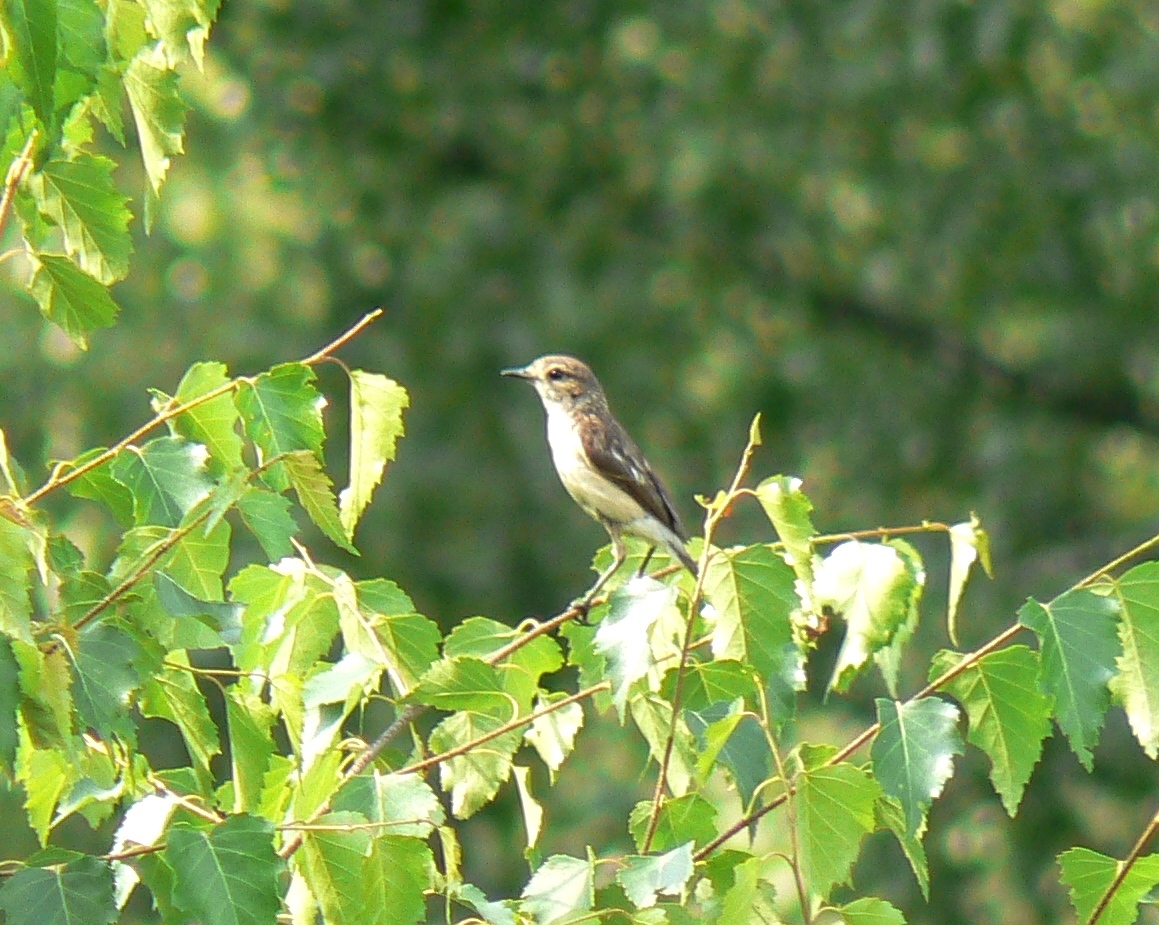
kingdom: Animalia
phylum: Chordata
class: Aves
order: Passeriformes
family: Muscicapidae
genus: Saxicola
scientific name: Saxicola maurus
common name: Siberian stonechat
